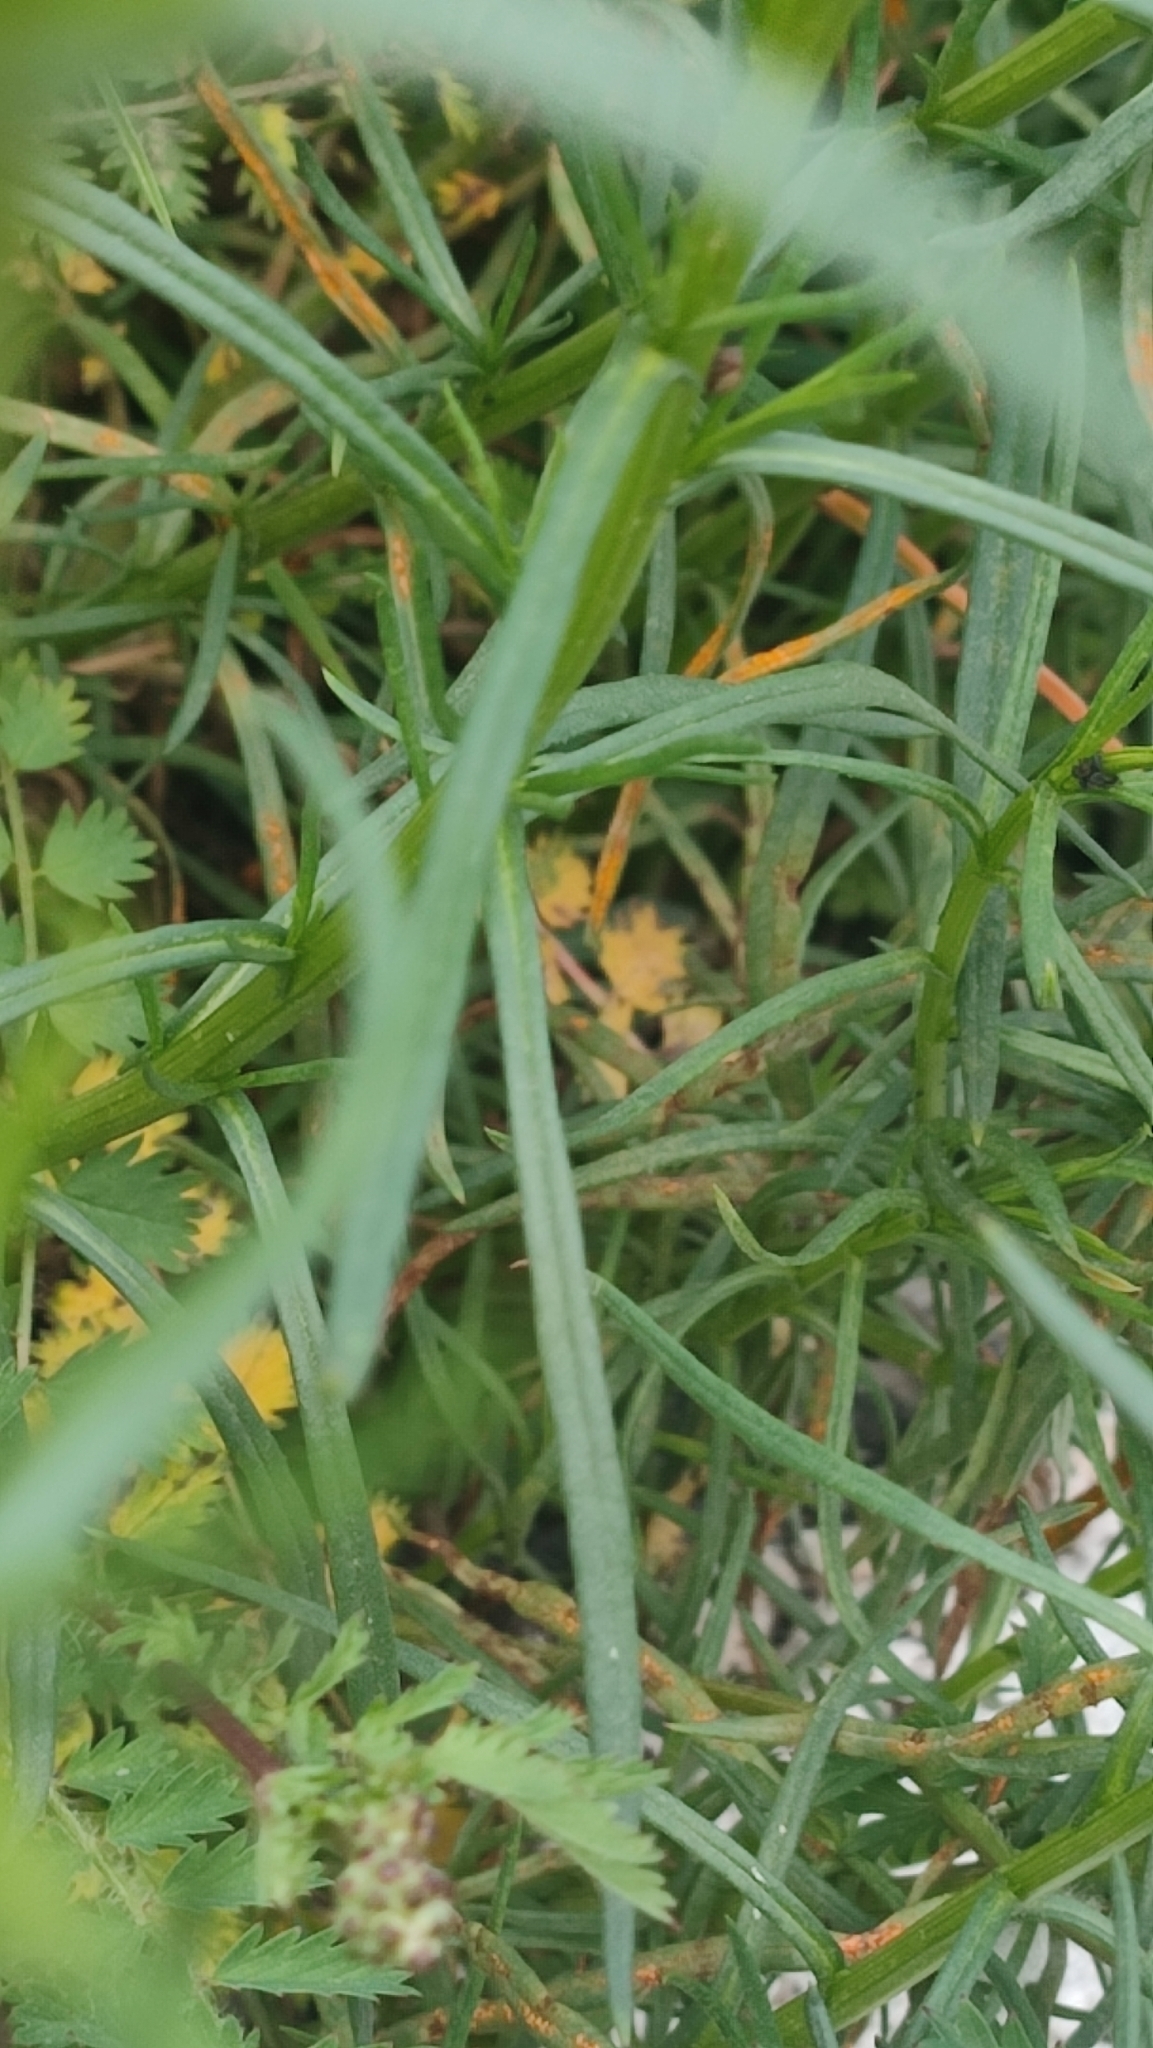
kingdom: Plantae
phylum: Tracheophyta
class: Magnoliopsida
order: Asterales
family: Asteraceae
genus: Senecio
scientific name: Senecio inaequidens
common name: Narrow-leaved ragwort
